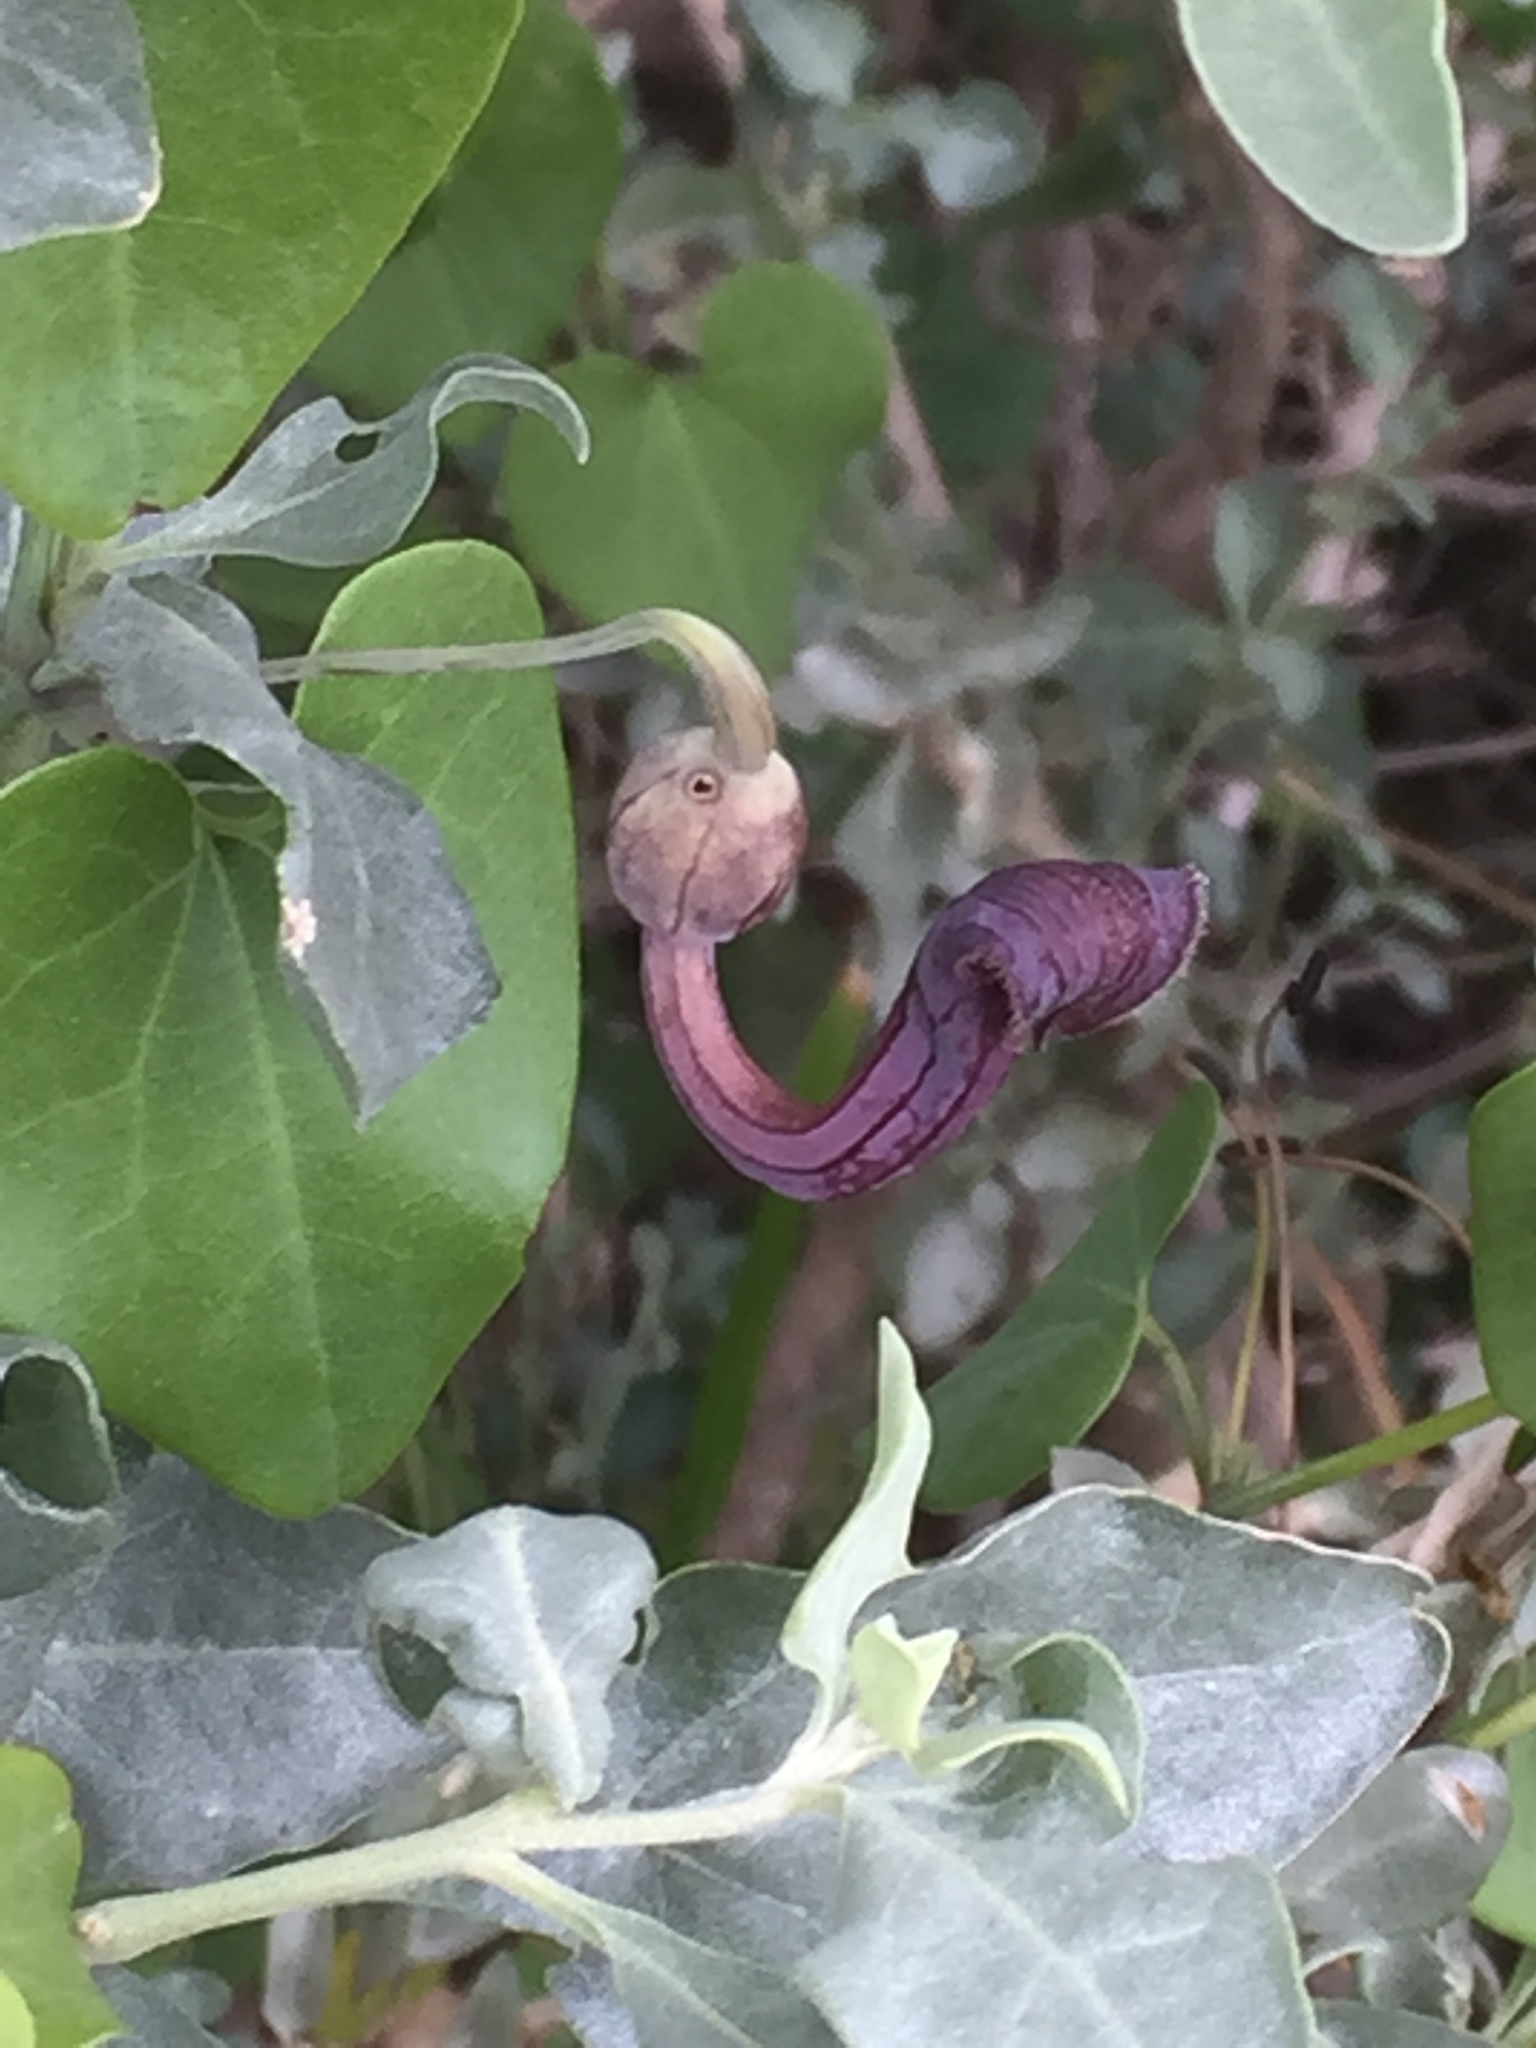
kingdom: Plantae
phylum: Tracheophyta
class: Magnoliopsida
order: Piperales
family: Aristolochiaceae
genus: Aristolochia
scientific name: Aristolochia baetica
